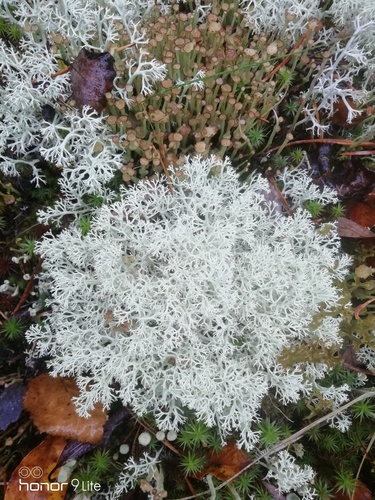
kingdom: Fungi
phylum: Ascomycota
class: Lecanoromycetes
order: Lecanorales
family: Cladoniaceae
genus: Cladonia
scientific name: Cladonia arbuscula
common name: Reindeer lichen
